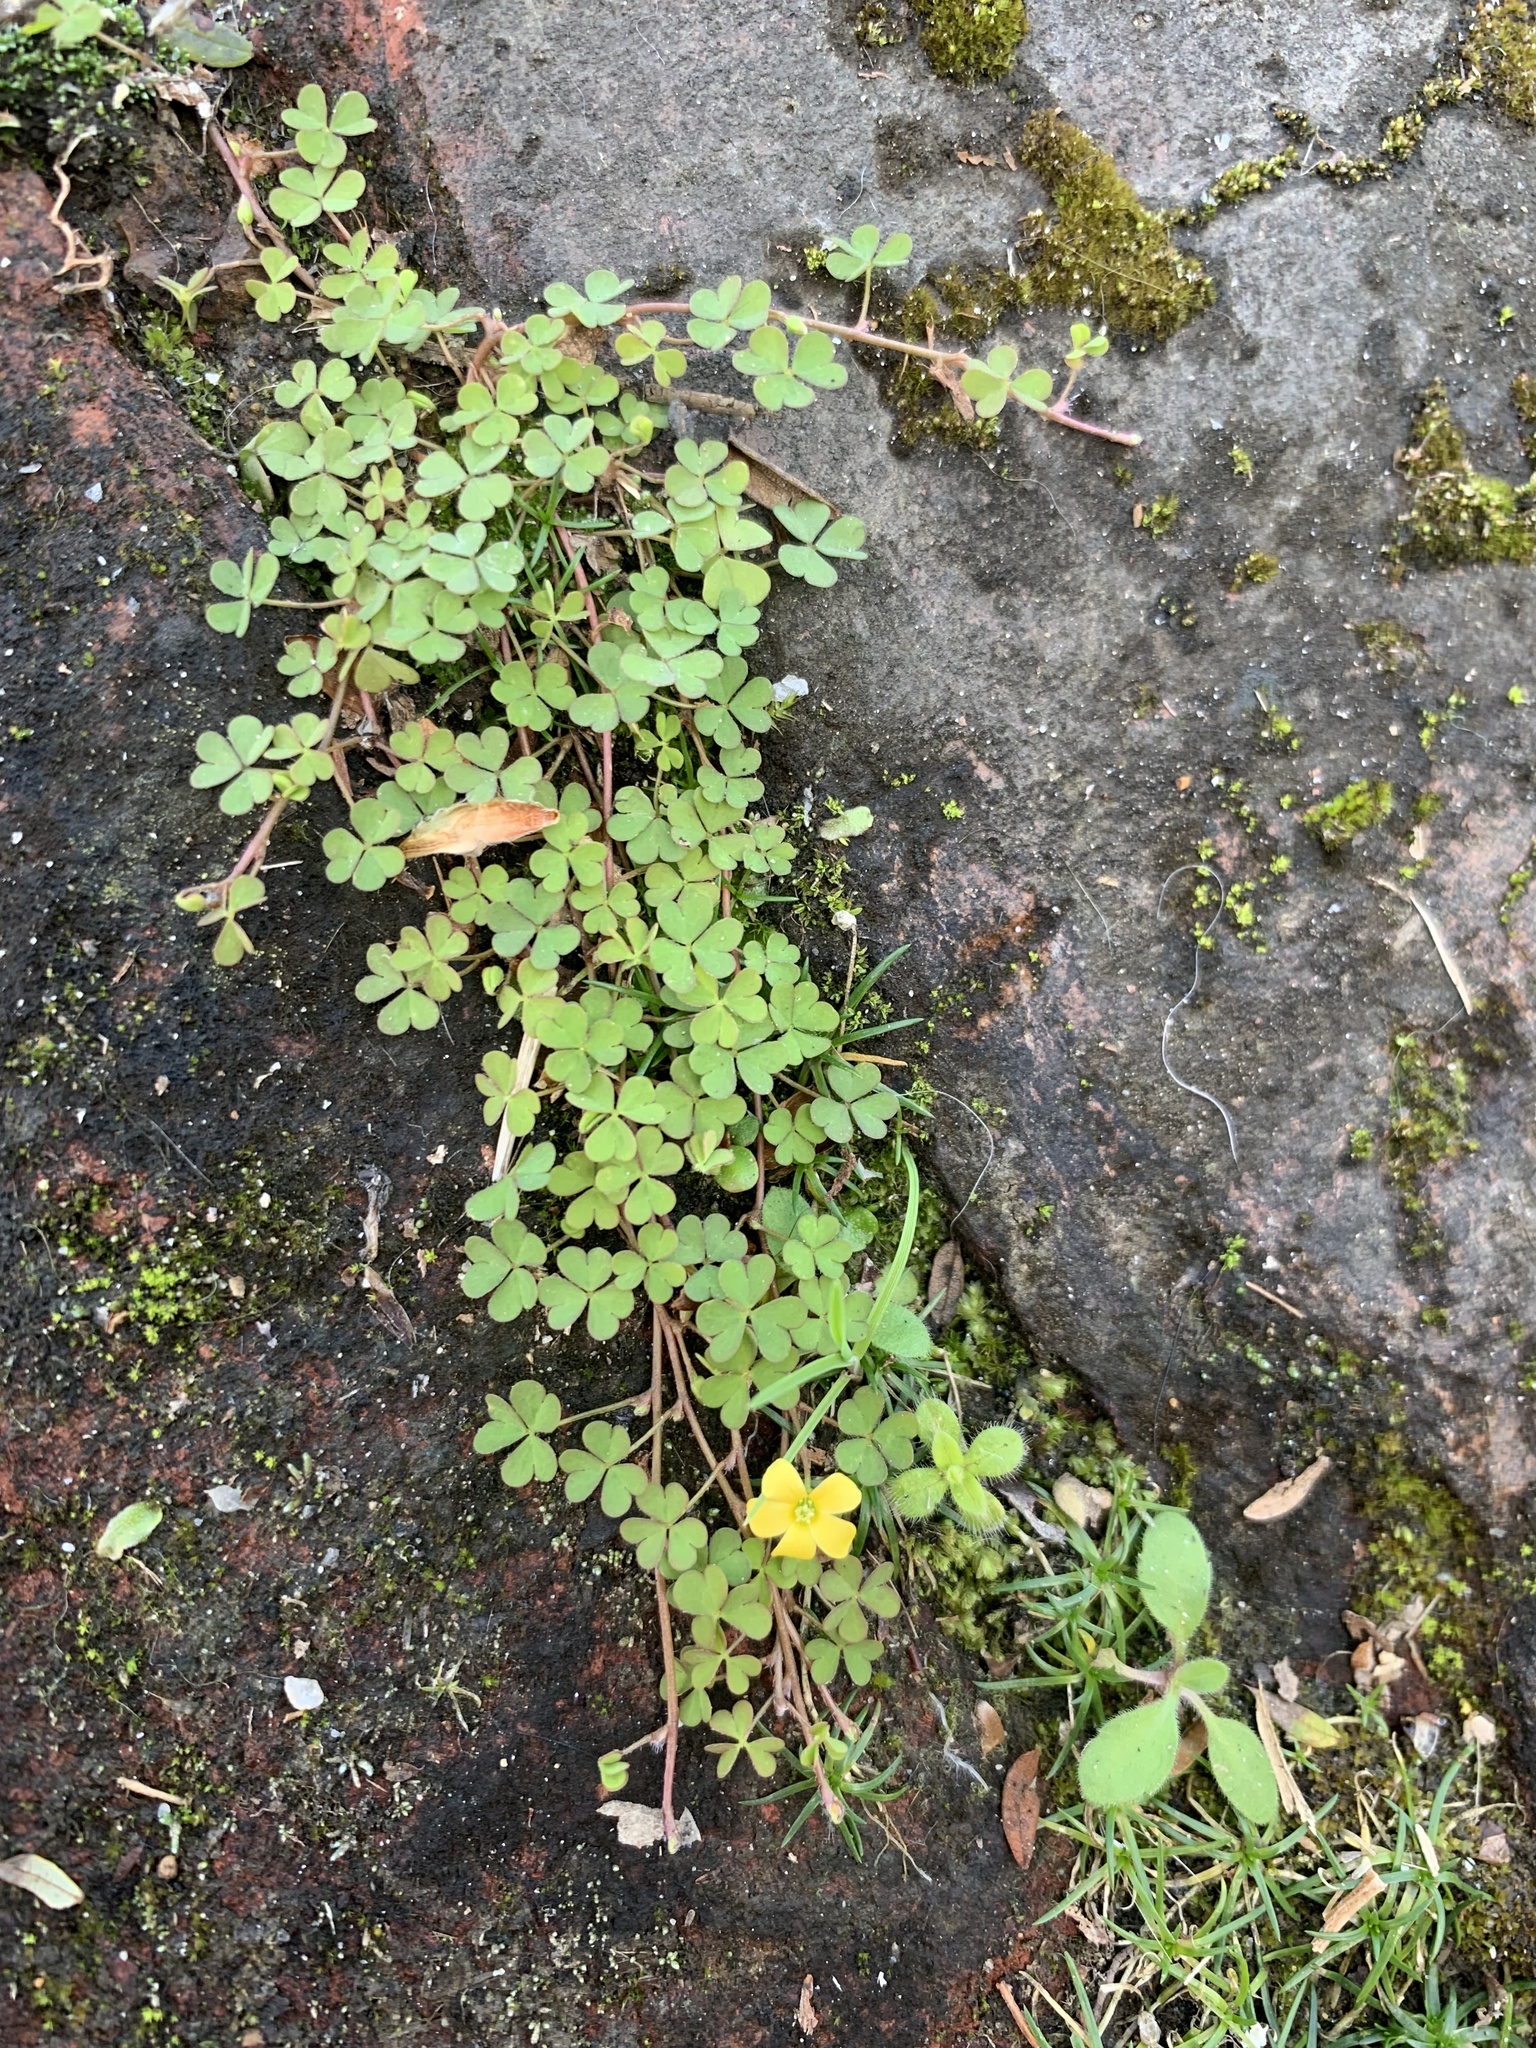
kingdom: Plantae
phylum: Tracheophyta
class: Magnoliopsida
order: Oxalidales
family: Oxalidaceae
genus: Oxalis
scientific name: Oxalis corniculata
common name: Procumbent yellow-sorrel
